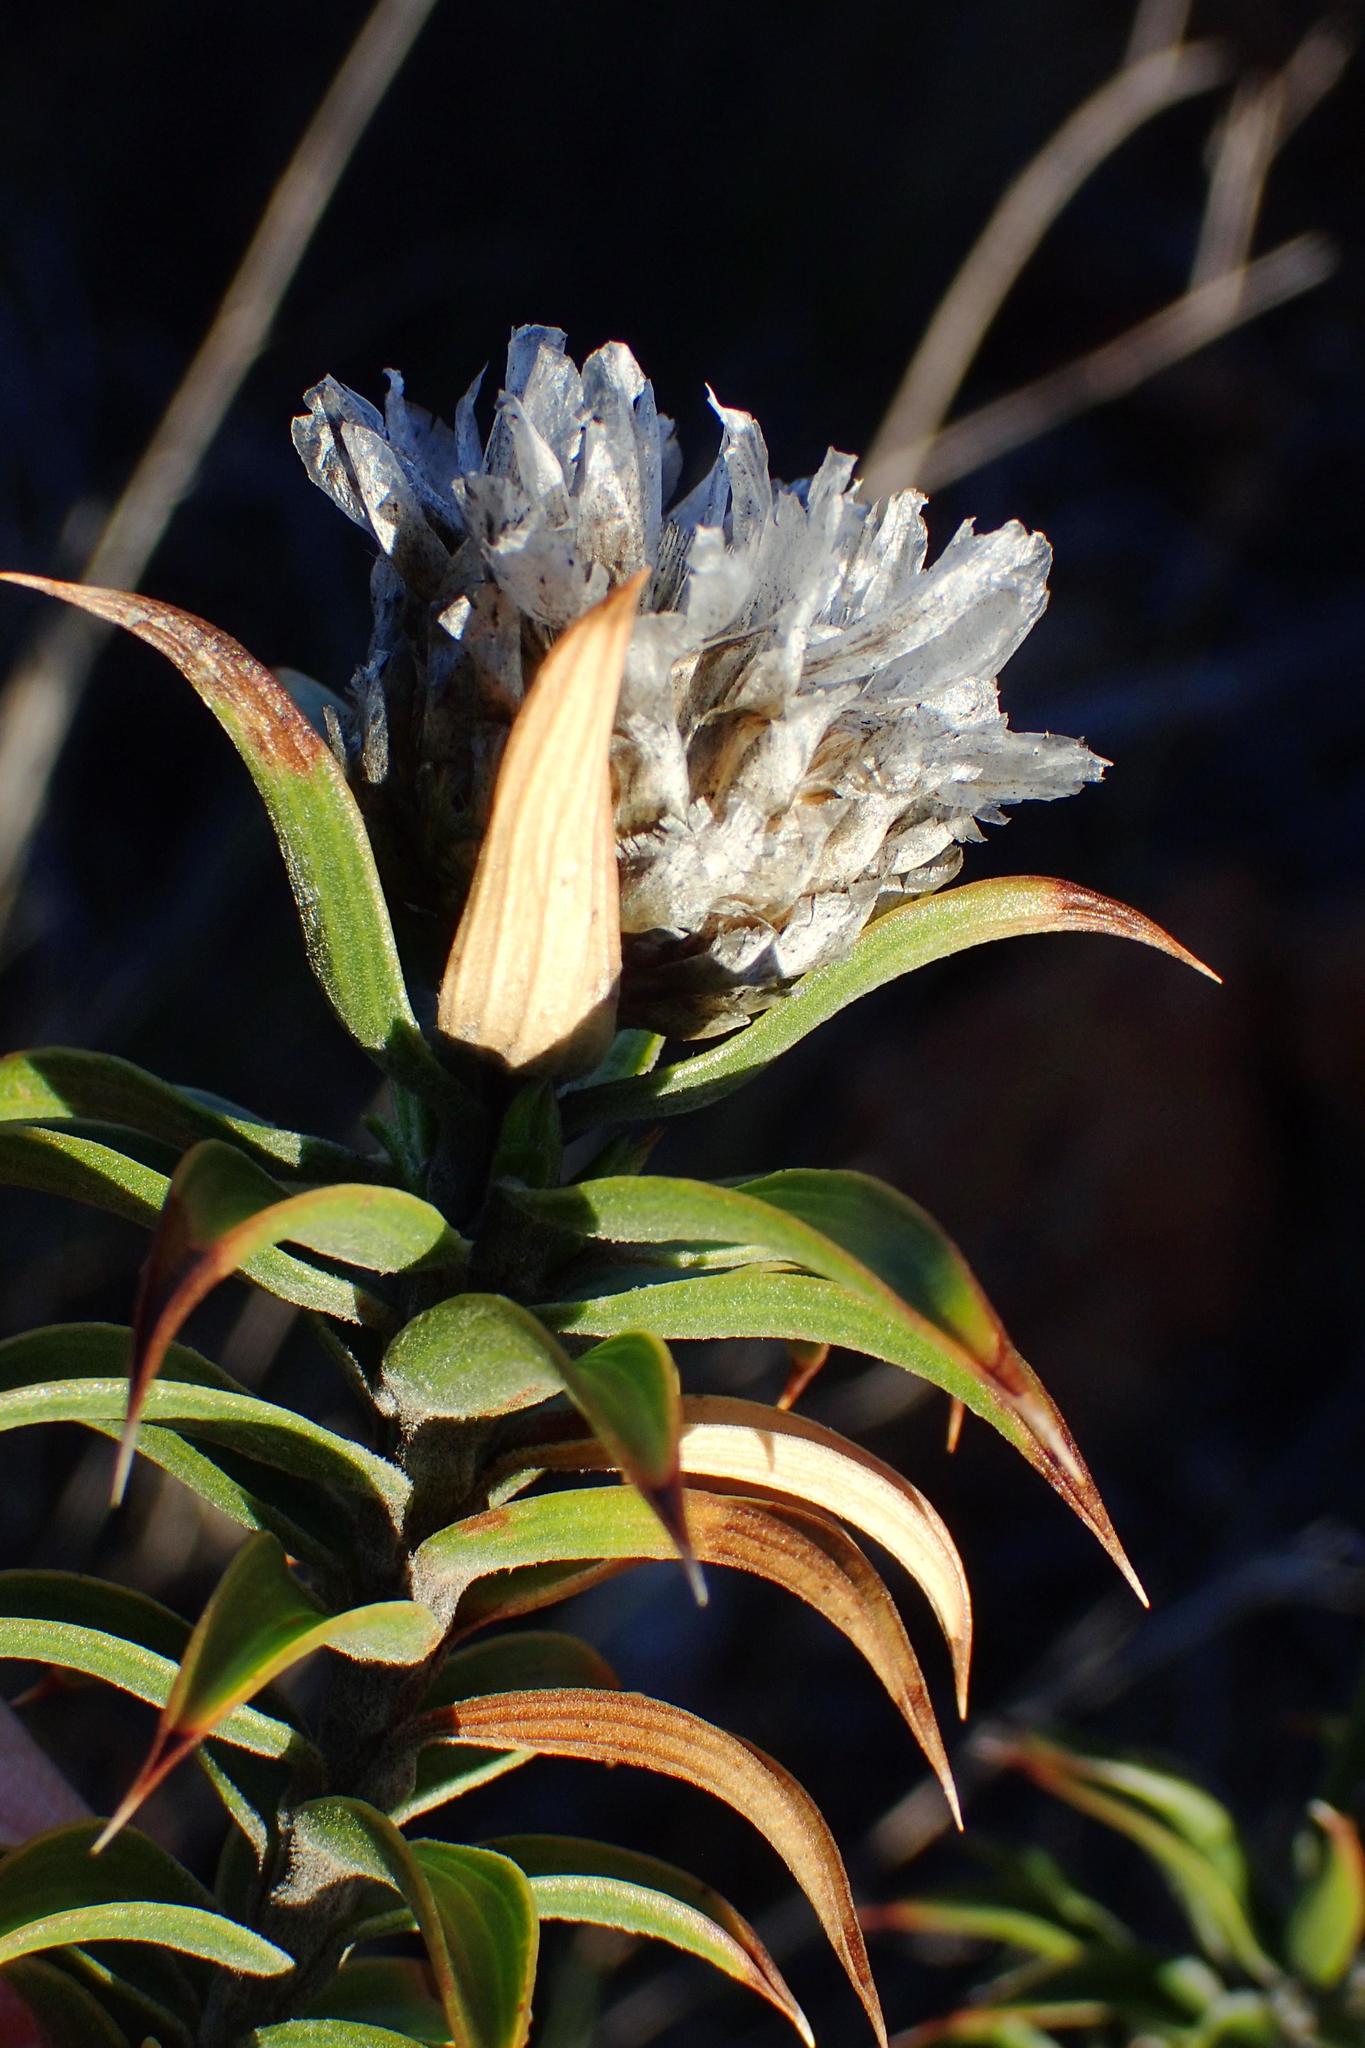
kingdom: Plantae
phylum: Tracheophyta
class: Magnoliopsida
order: Asterales
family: Asteraceae
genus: Oedera
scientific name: Oedera speciosa
